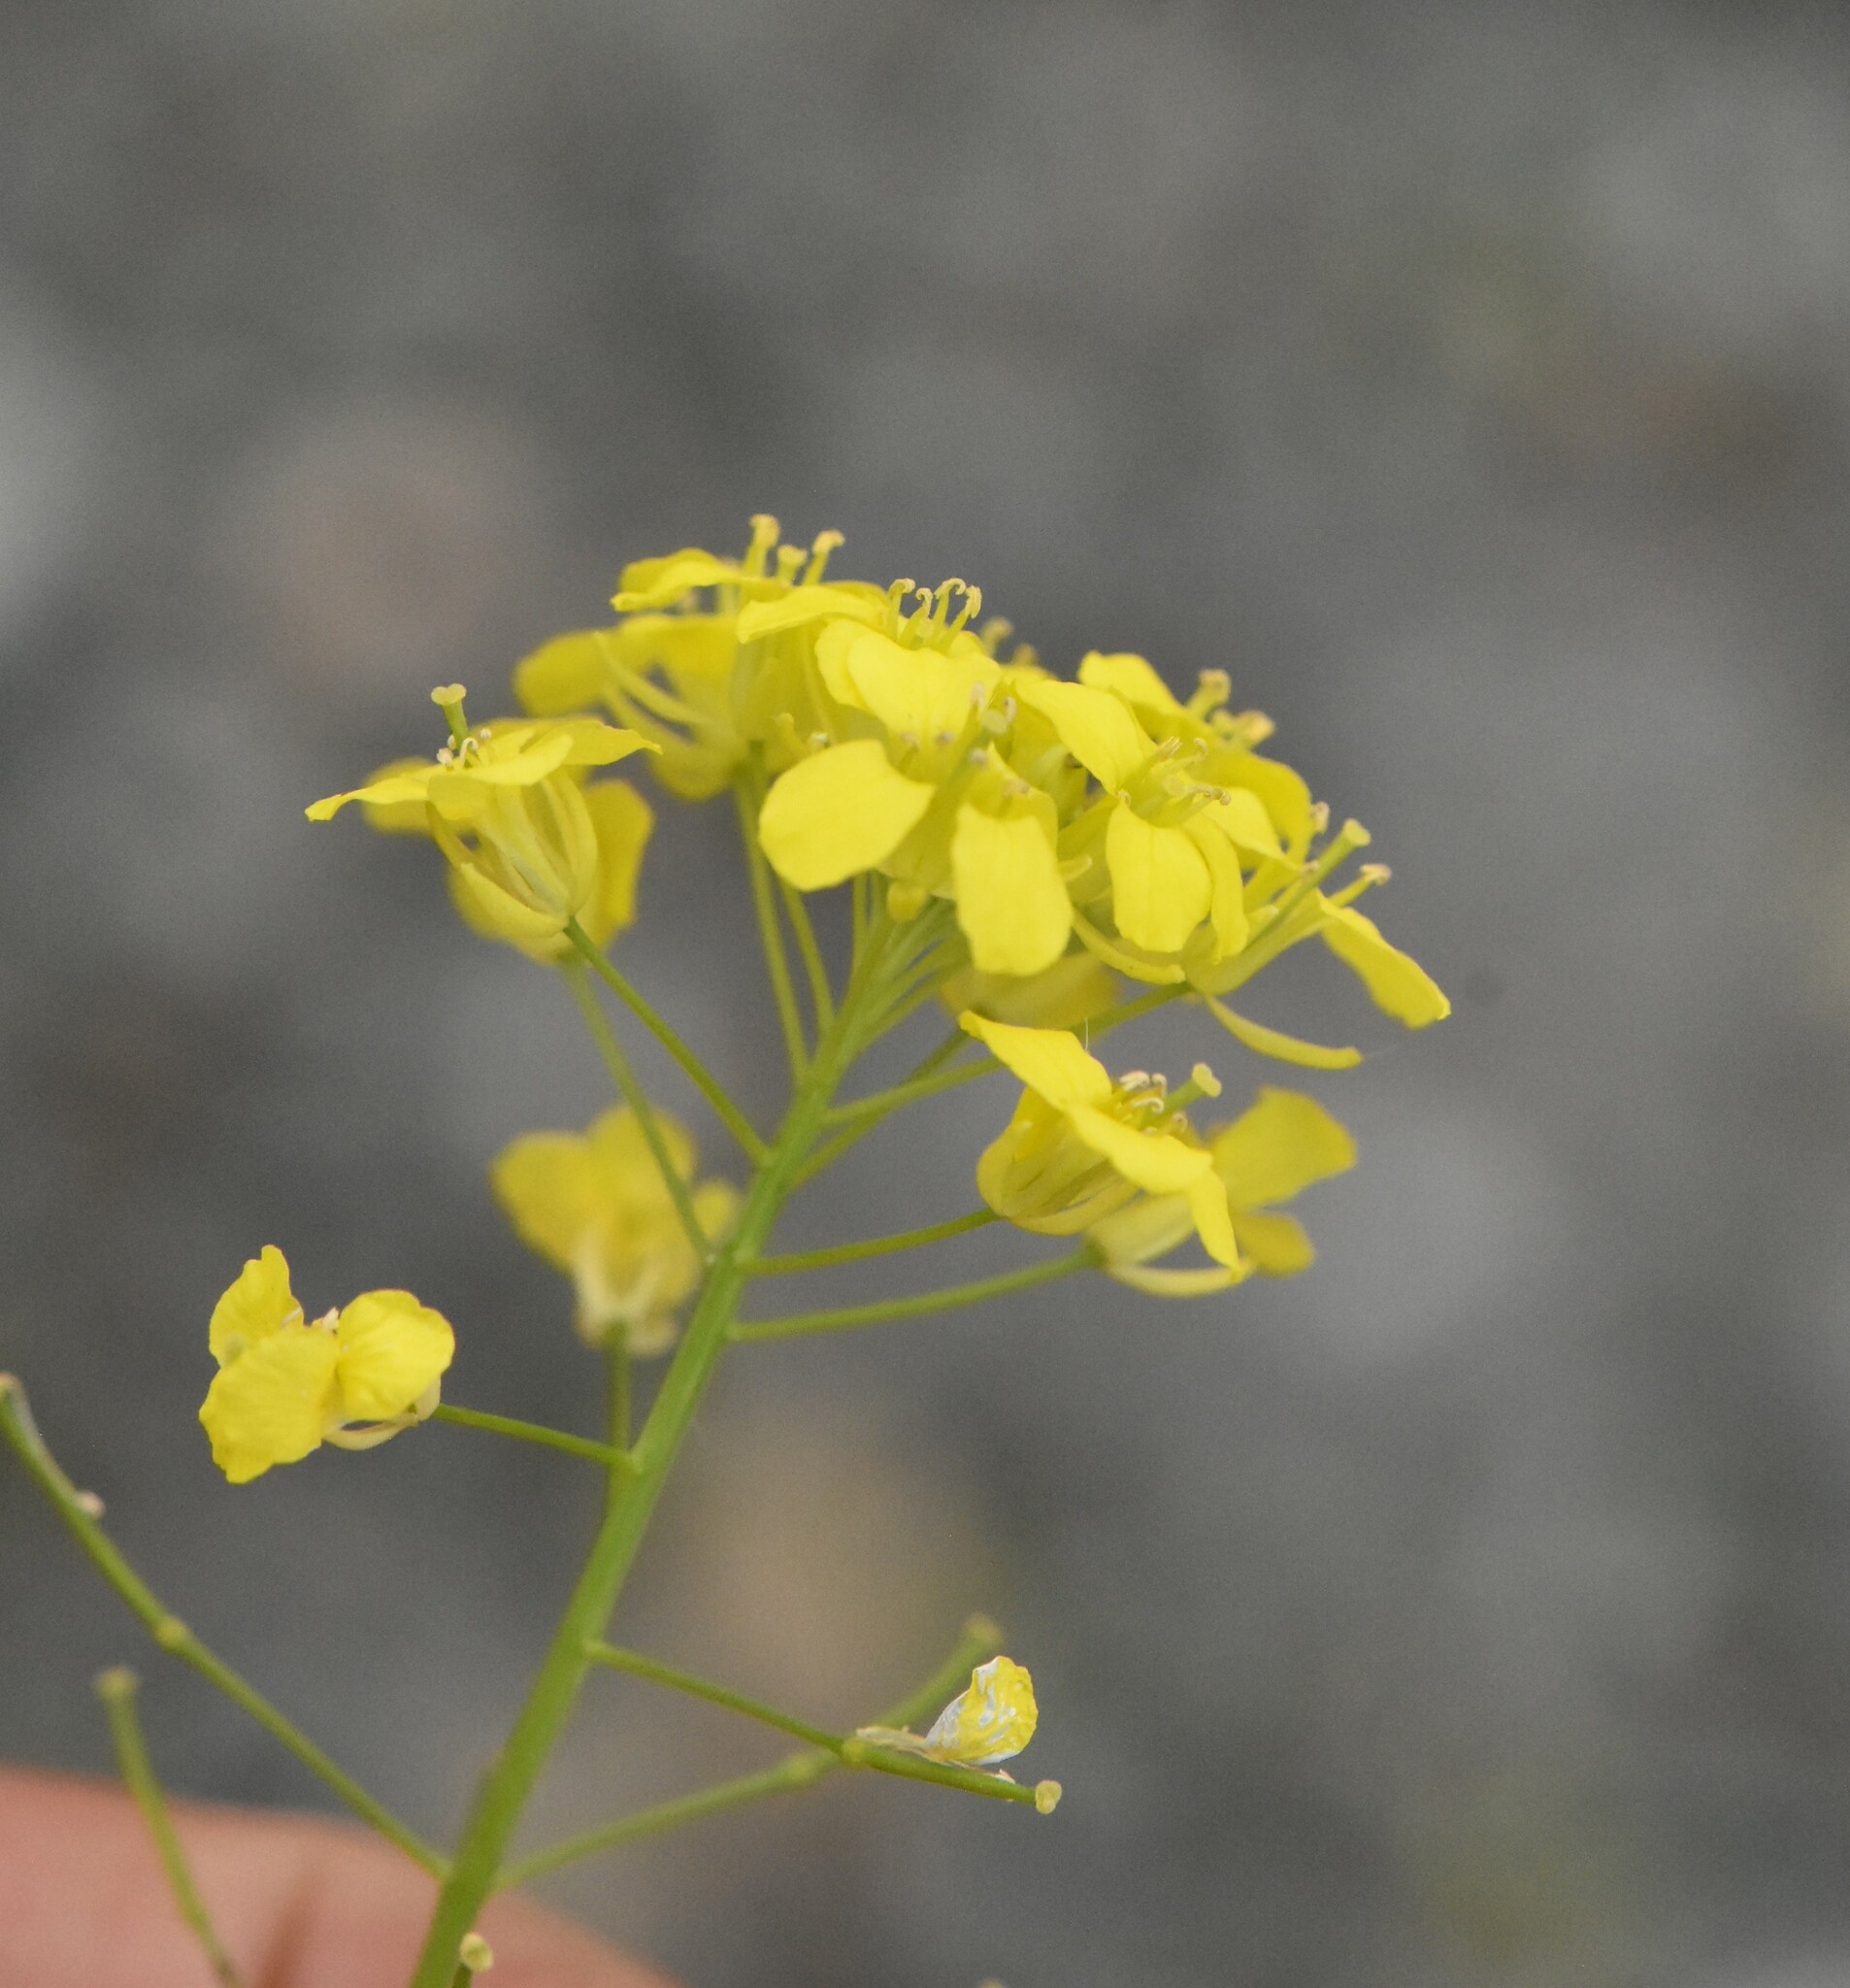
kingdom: Plantae
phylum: Tracheophyta
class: Magnoliopsida
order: Brassicales
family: Brassicaceae
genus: Sisymbrium
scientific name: Sisymbrium loeselii
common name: False london-rocket
